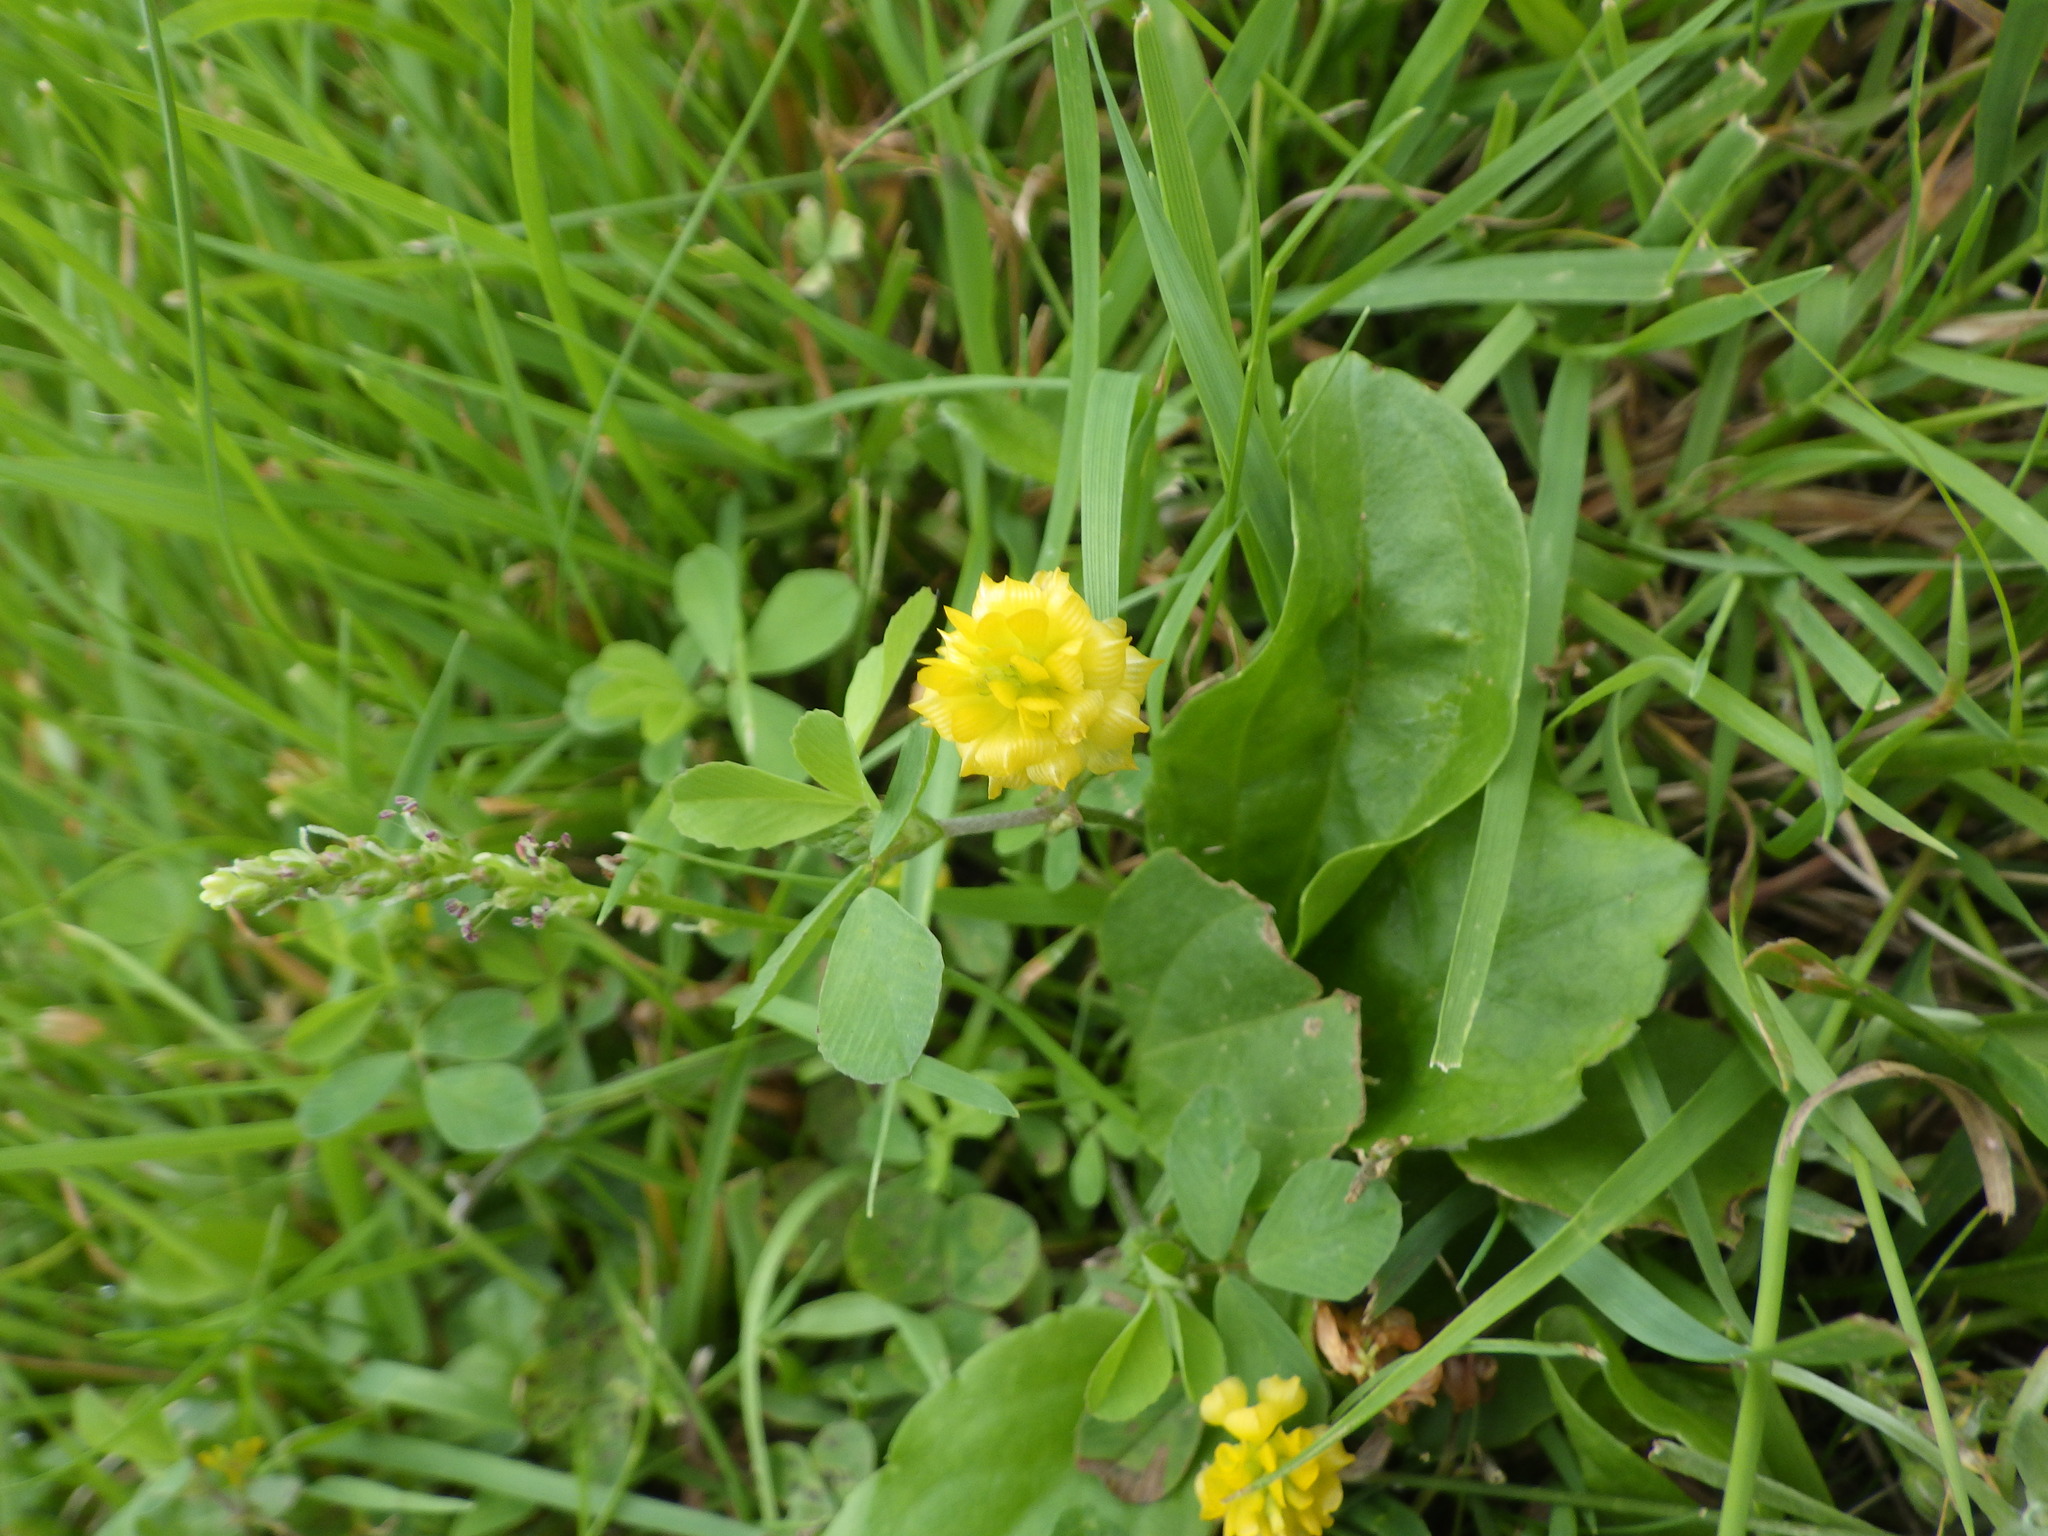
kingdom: Plantae
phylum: Tracheophyta
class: Magnoliopsida
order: Fabales
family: Fabaceae
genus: Trifolium
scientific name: Trifolium campestre
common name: Field clover
